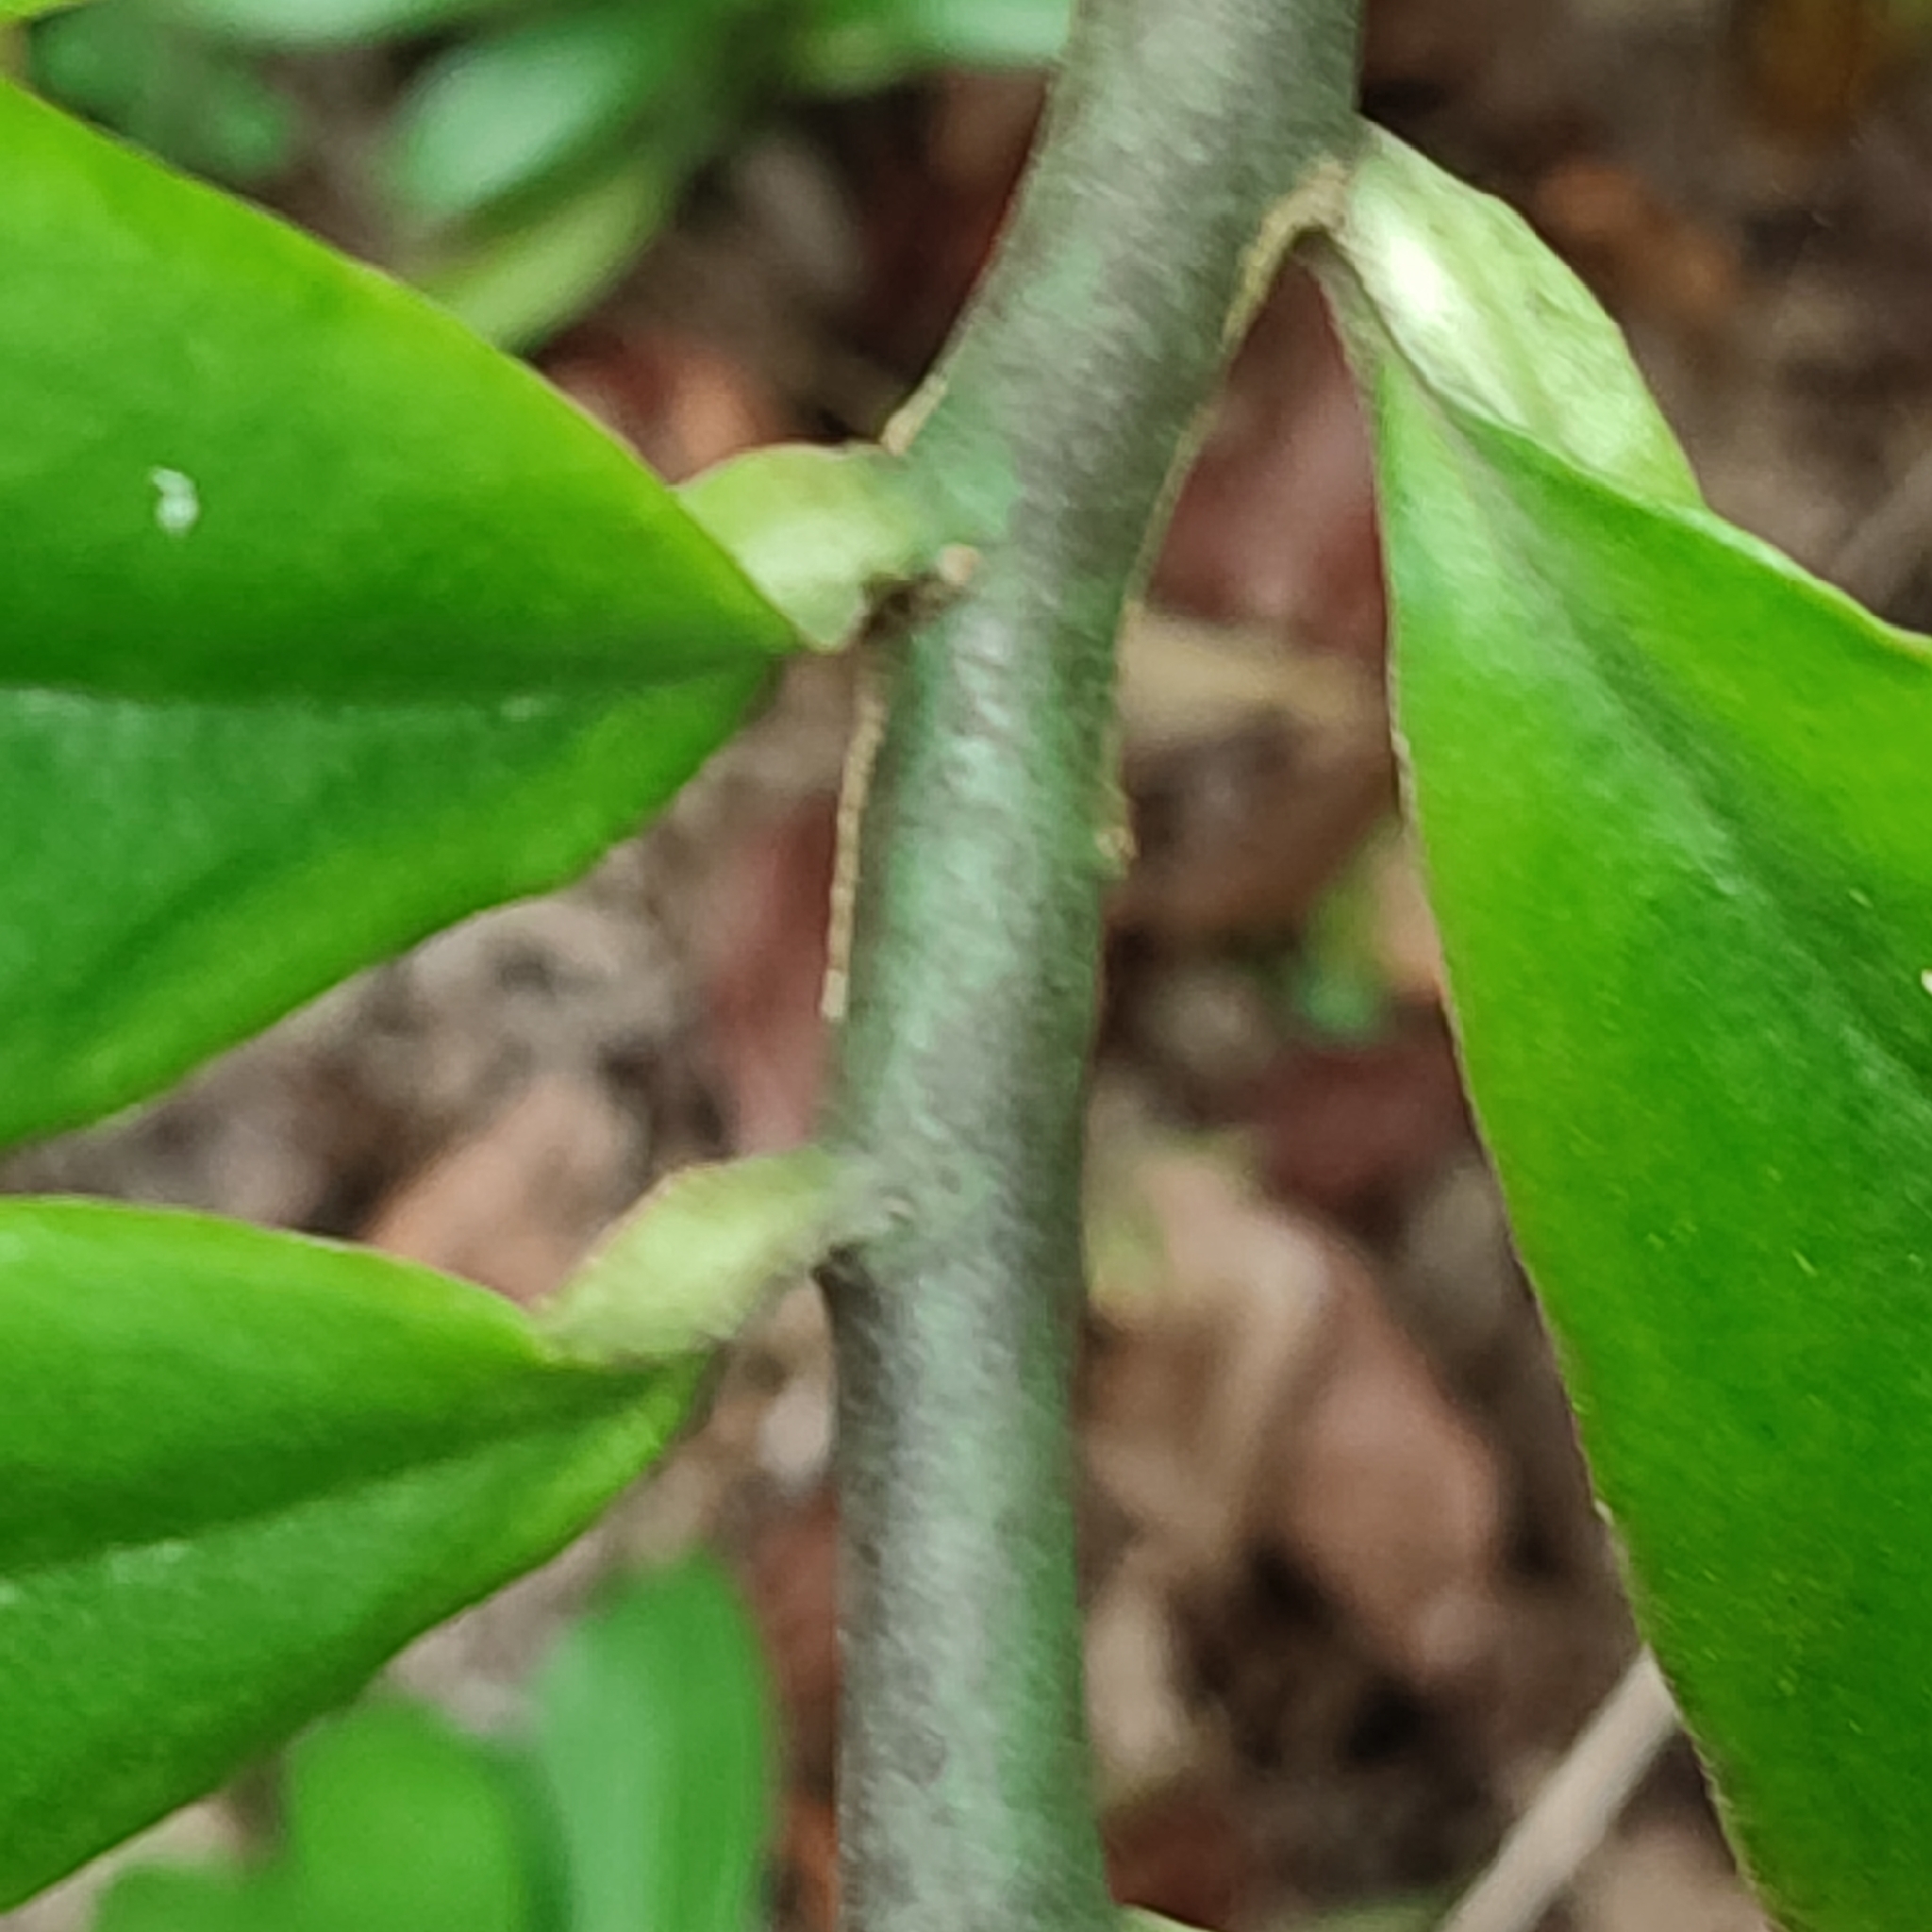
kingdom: Plantae
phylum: Tracheophyta
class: Magnoliopsida
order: Malpighiales
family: Euphorbiaceae
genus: Euphorbia
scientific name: Euphorbia tithymaloides
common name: Slipperplant
